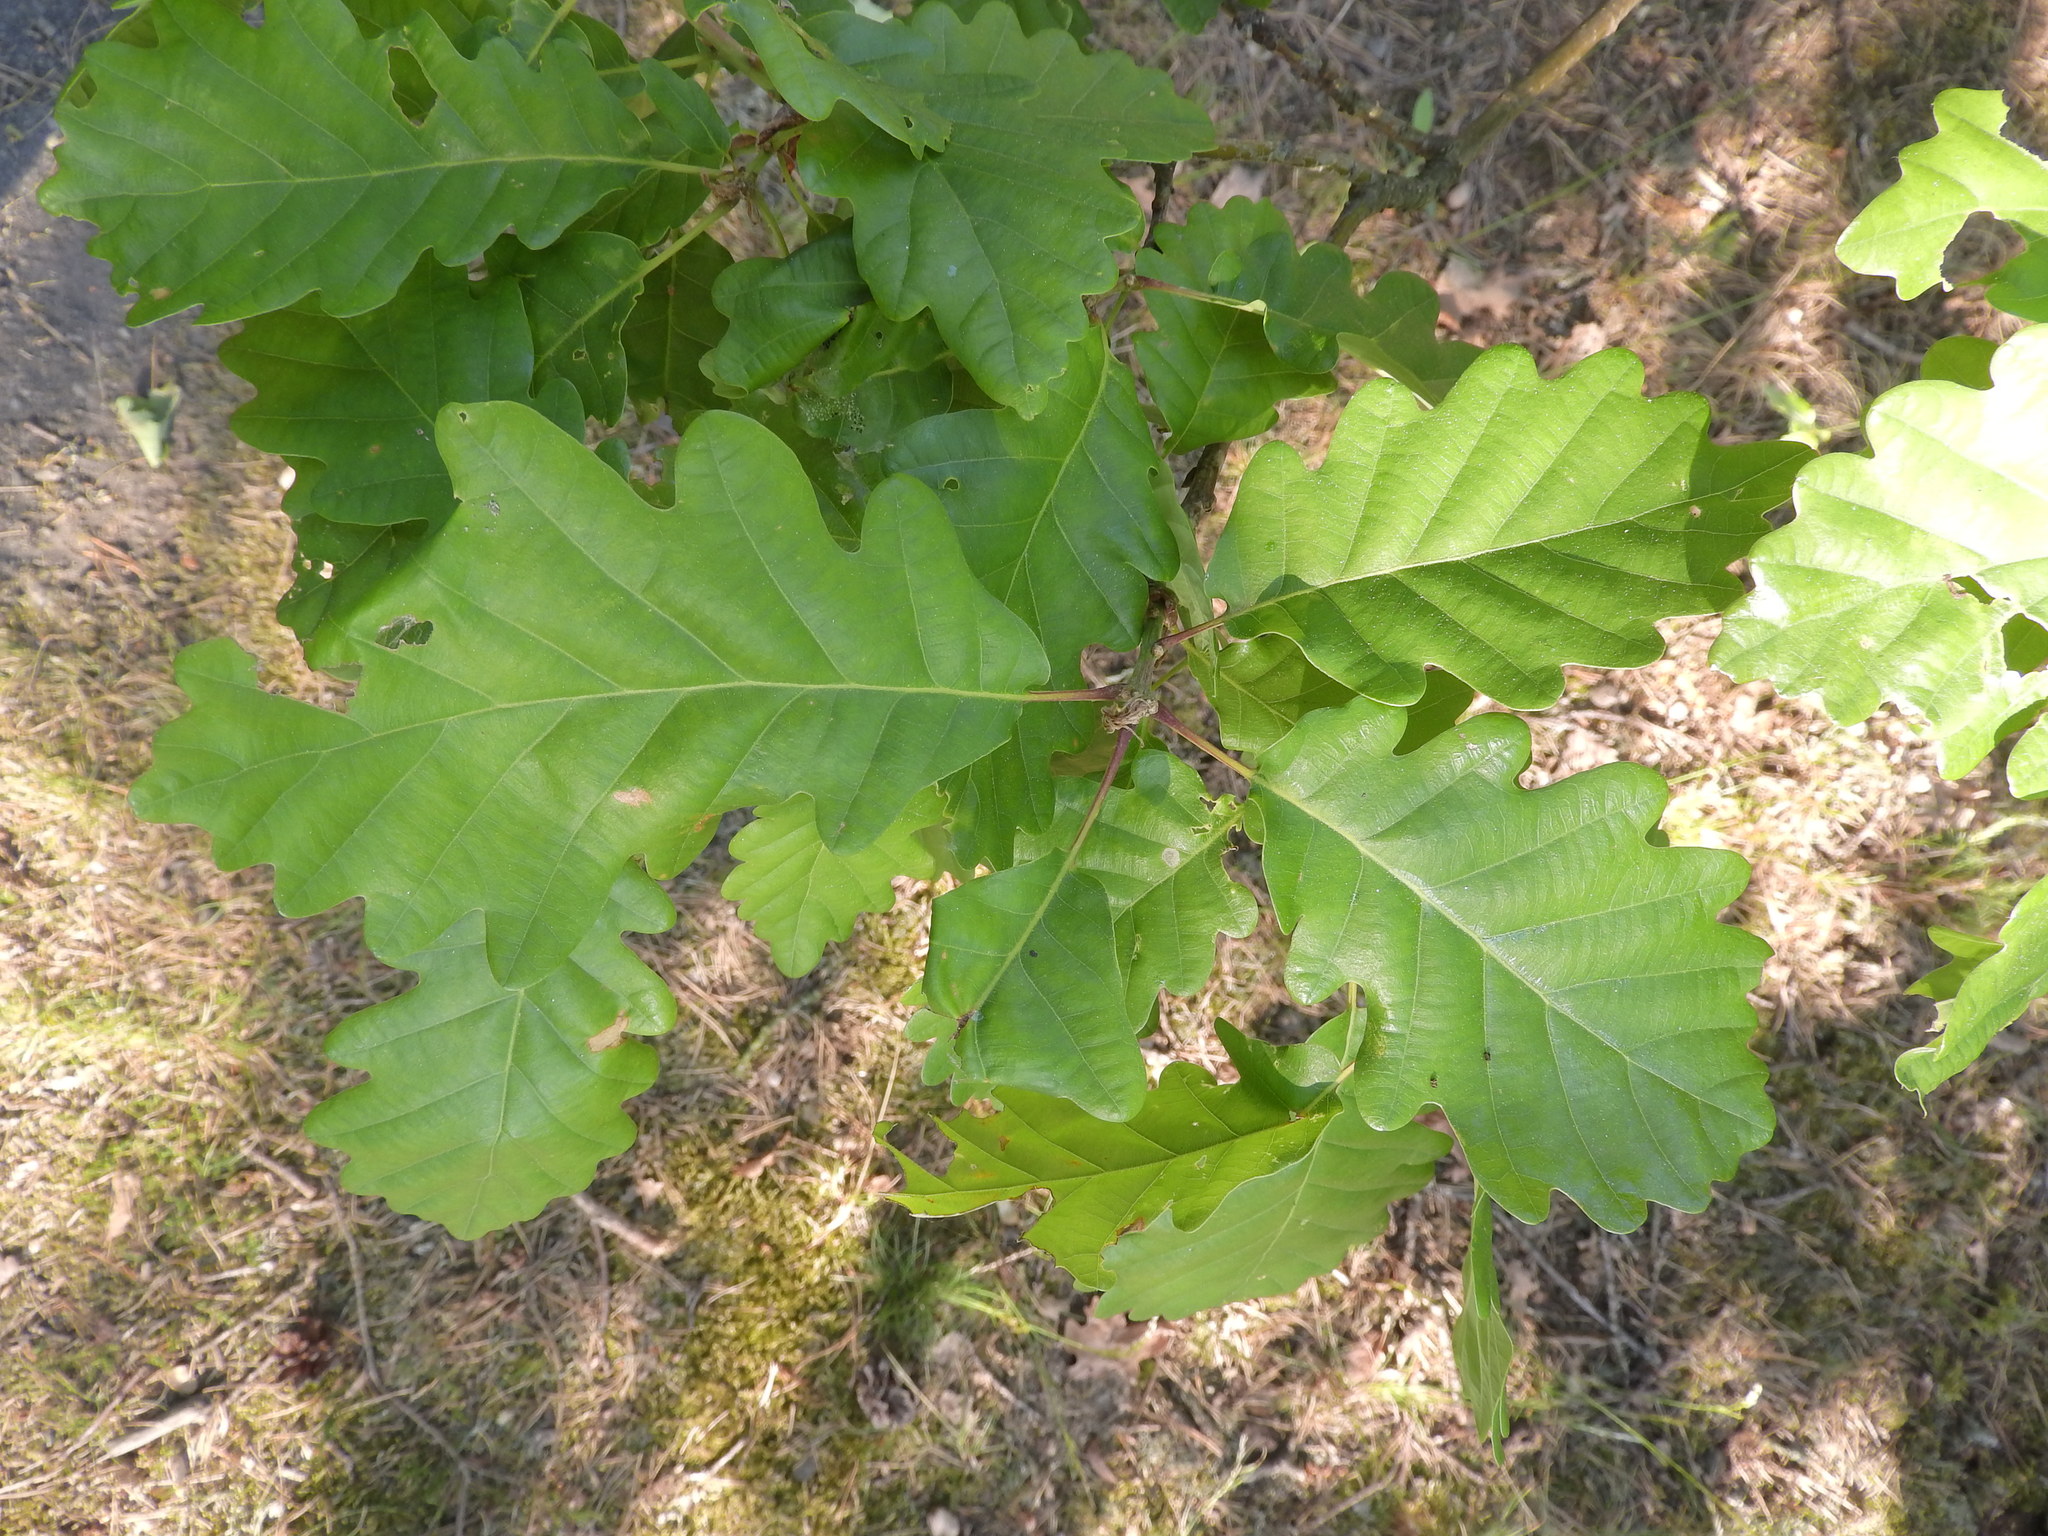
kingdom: Plantae
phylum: Tracheophyta
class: Magnoliopsida
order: Fagales
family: Fagaceae
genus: Quercus
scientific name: Quercus robur
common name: Pedunculate oak
